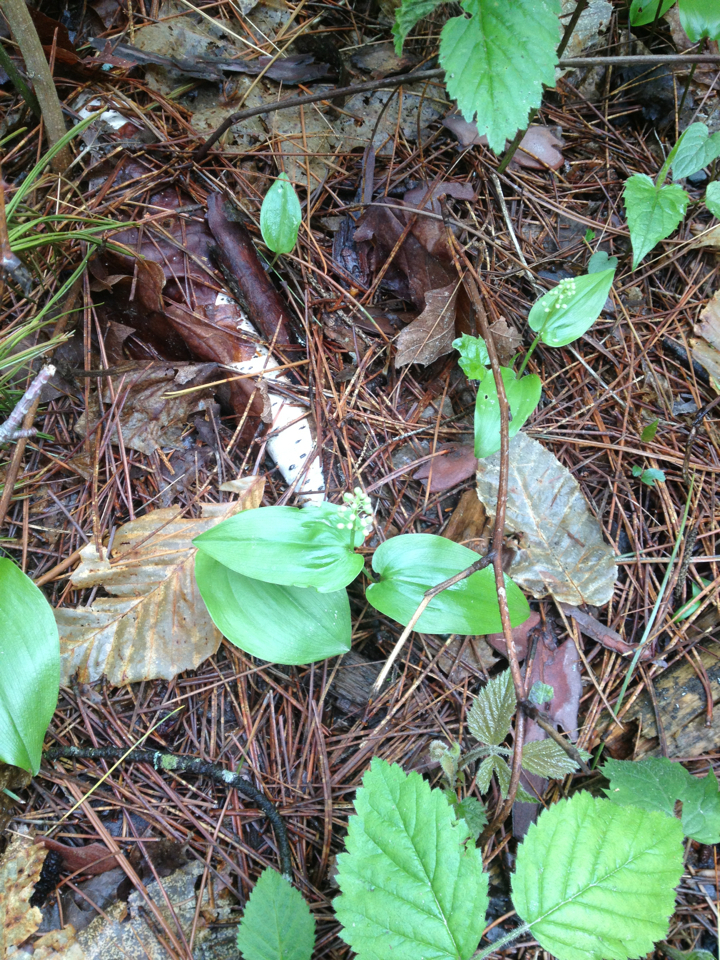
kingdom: Plantae
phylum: Tracheophyta
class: Liliopsida
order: Asparagales
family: Asparagaceae
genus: Maianthemum
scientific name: Maianthemum canadense
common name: False lily-of-the-valley
